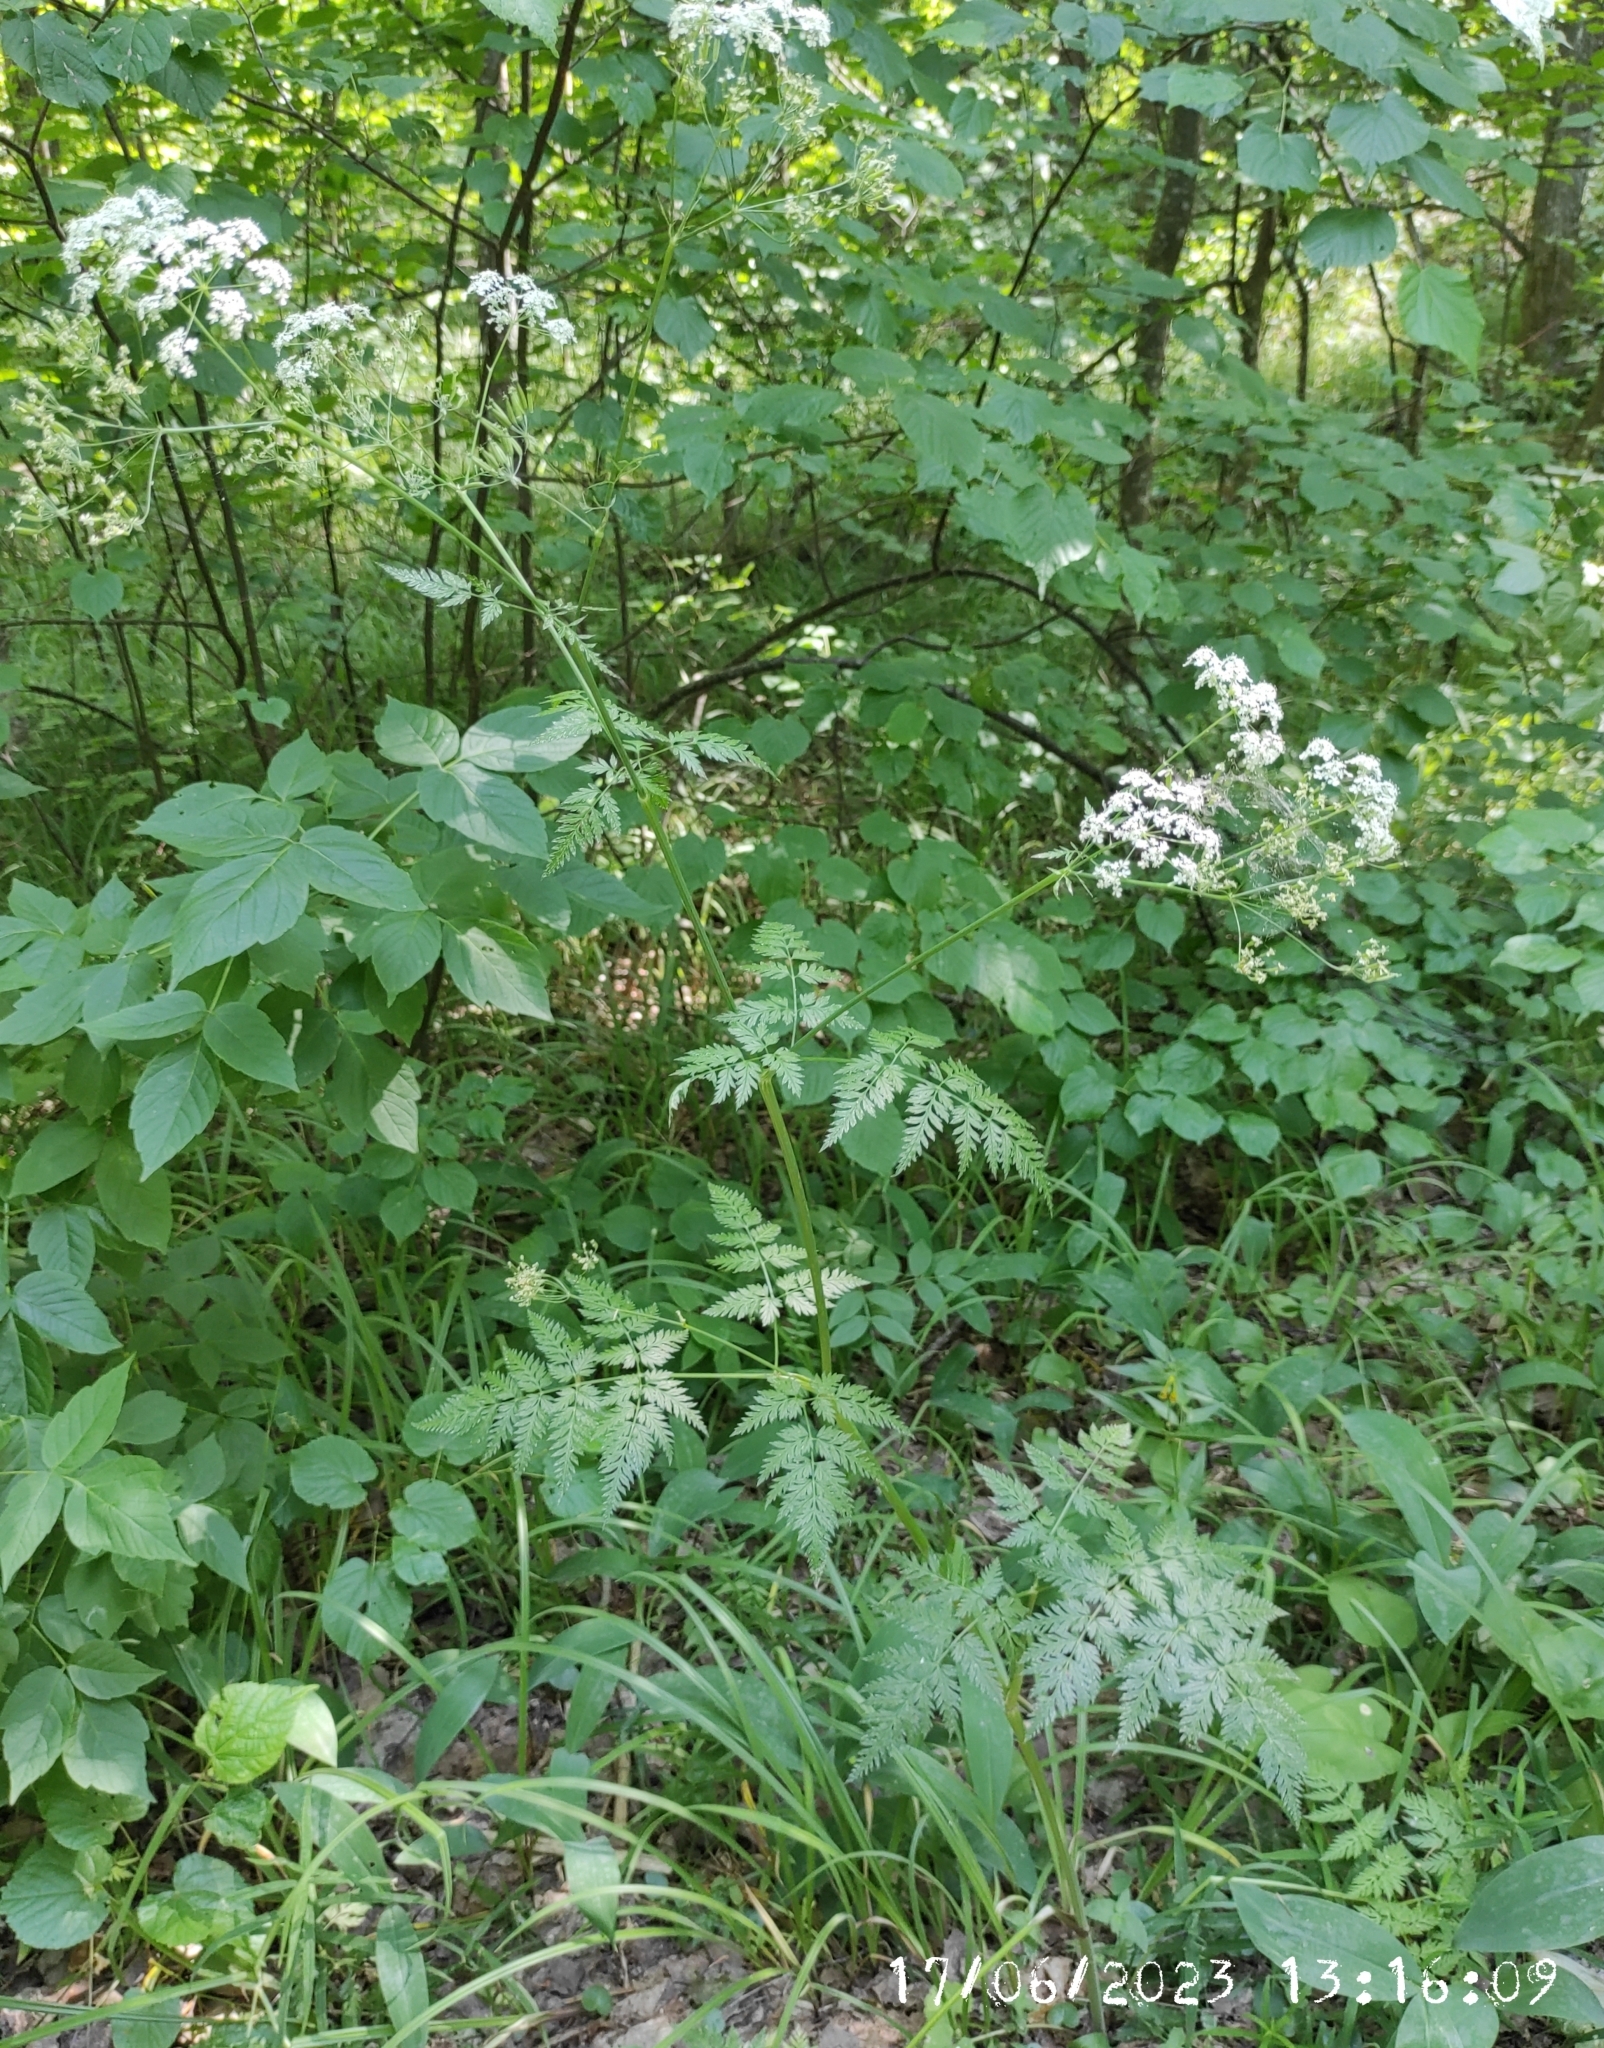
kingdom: Plantae
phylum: Tracheophyta
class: Magnoliopsida
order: Apiales
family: Apiaceae
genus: Anthriscus
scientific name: Anthriscus sylvestris
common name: Cow parsley
